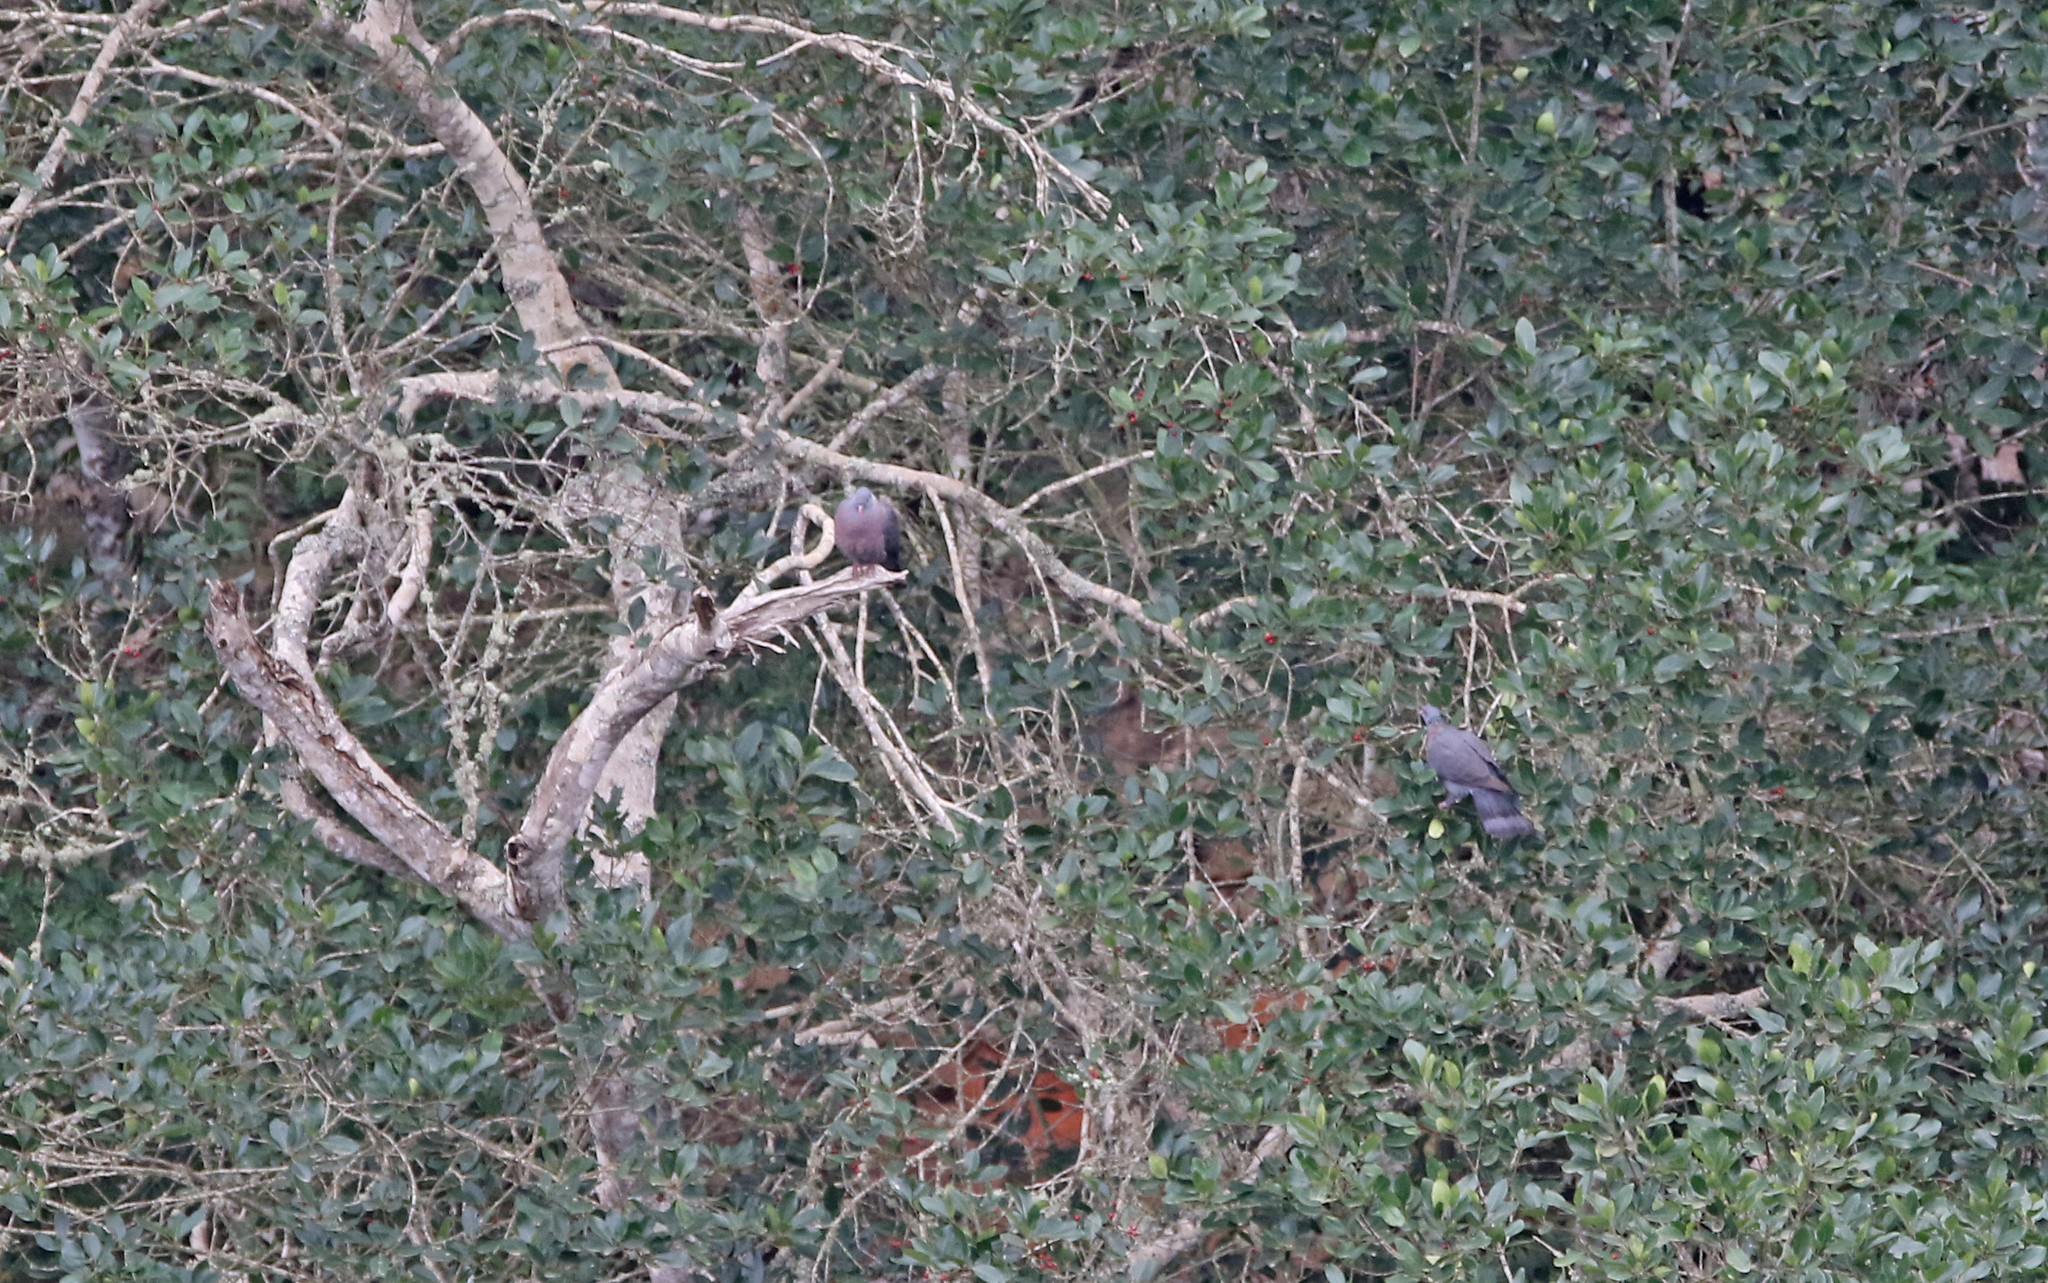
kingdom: Animalia
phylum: Chordata
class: Aves
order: Columbiformes
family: Columbidae
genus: Columba
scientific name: Columba bollii
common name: Bolle's pigeon
